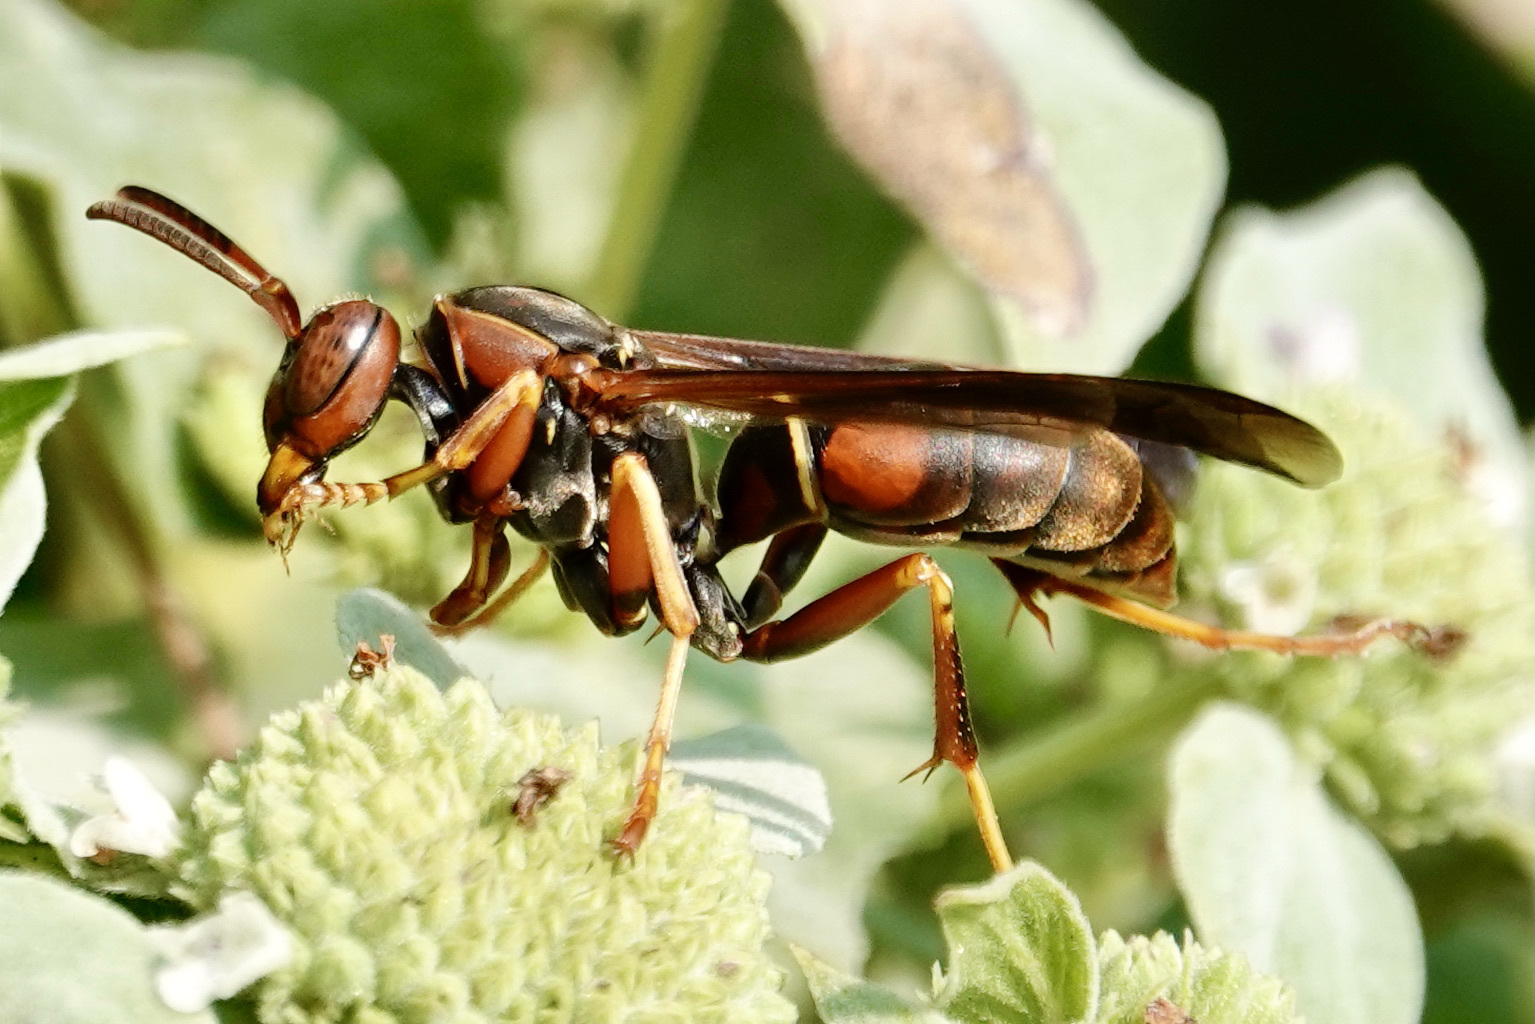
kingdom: Animalia
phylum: Arthropoda
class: Insecta
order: Hymenoptera
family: Eumenidae
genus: Polistes
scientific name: Polistes fuscatus
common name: Dark paper wasp
